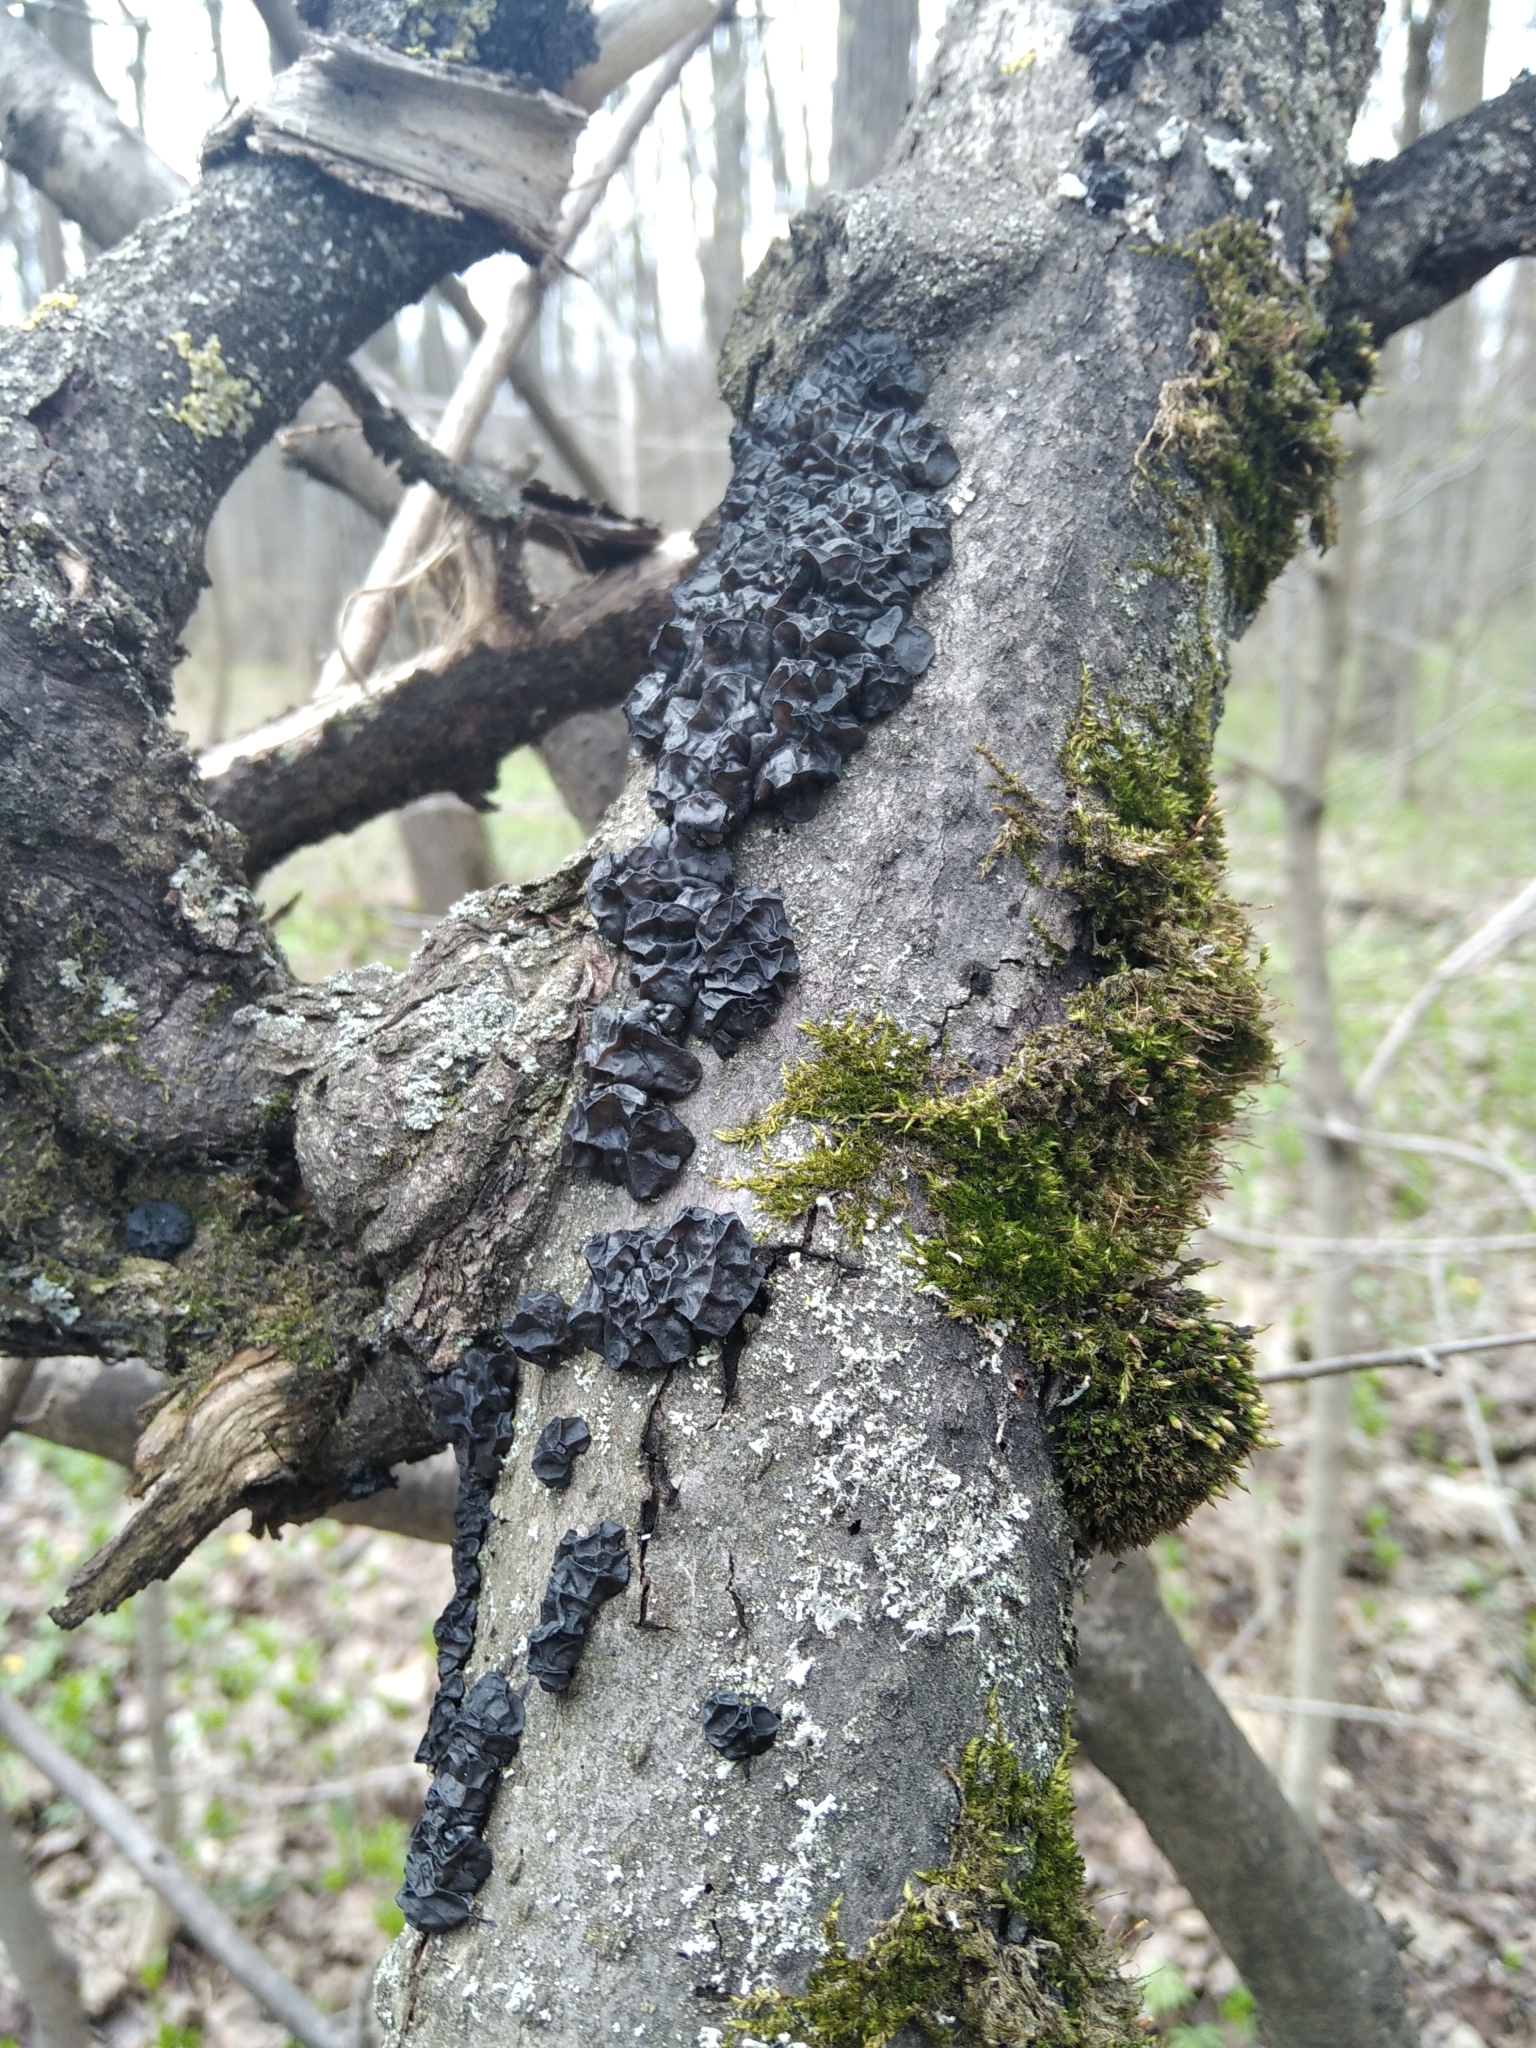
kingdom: Fungi
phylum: Basidiomycota
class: Agaricomycetes
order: Auriculariales
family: Auriculariaceae
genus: Exidia
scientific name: Exidia glandulosa
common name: Witches' butter
